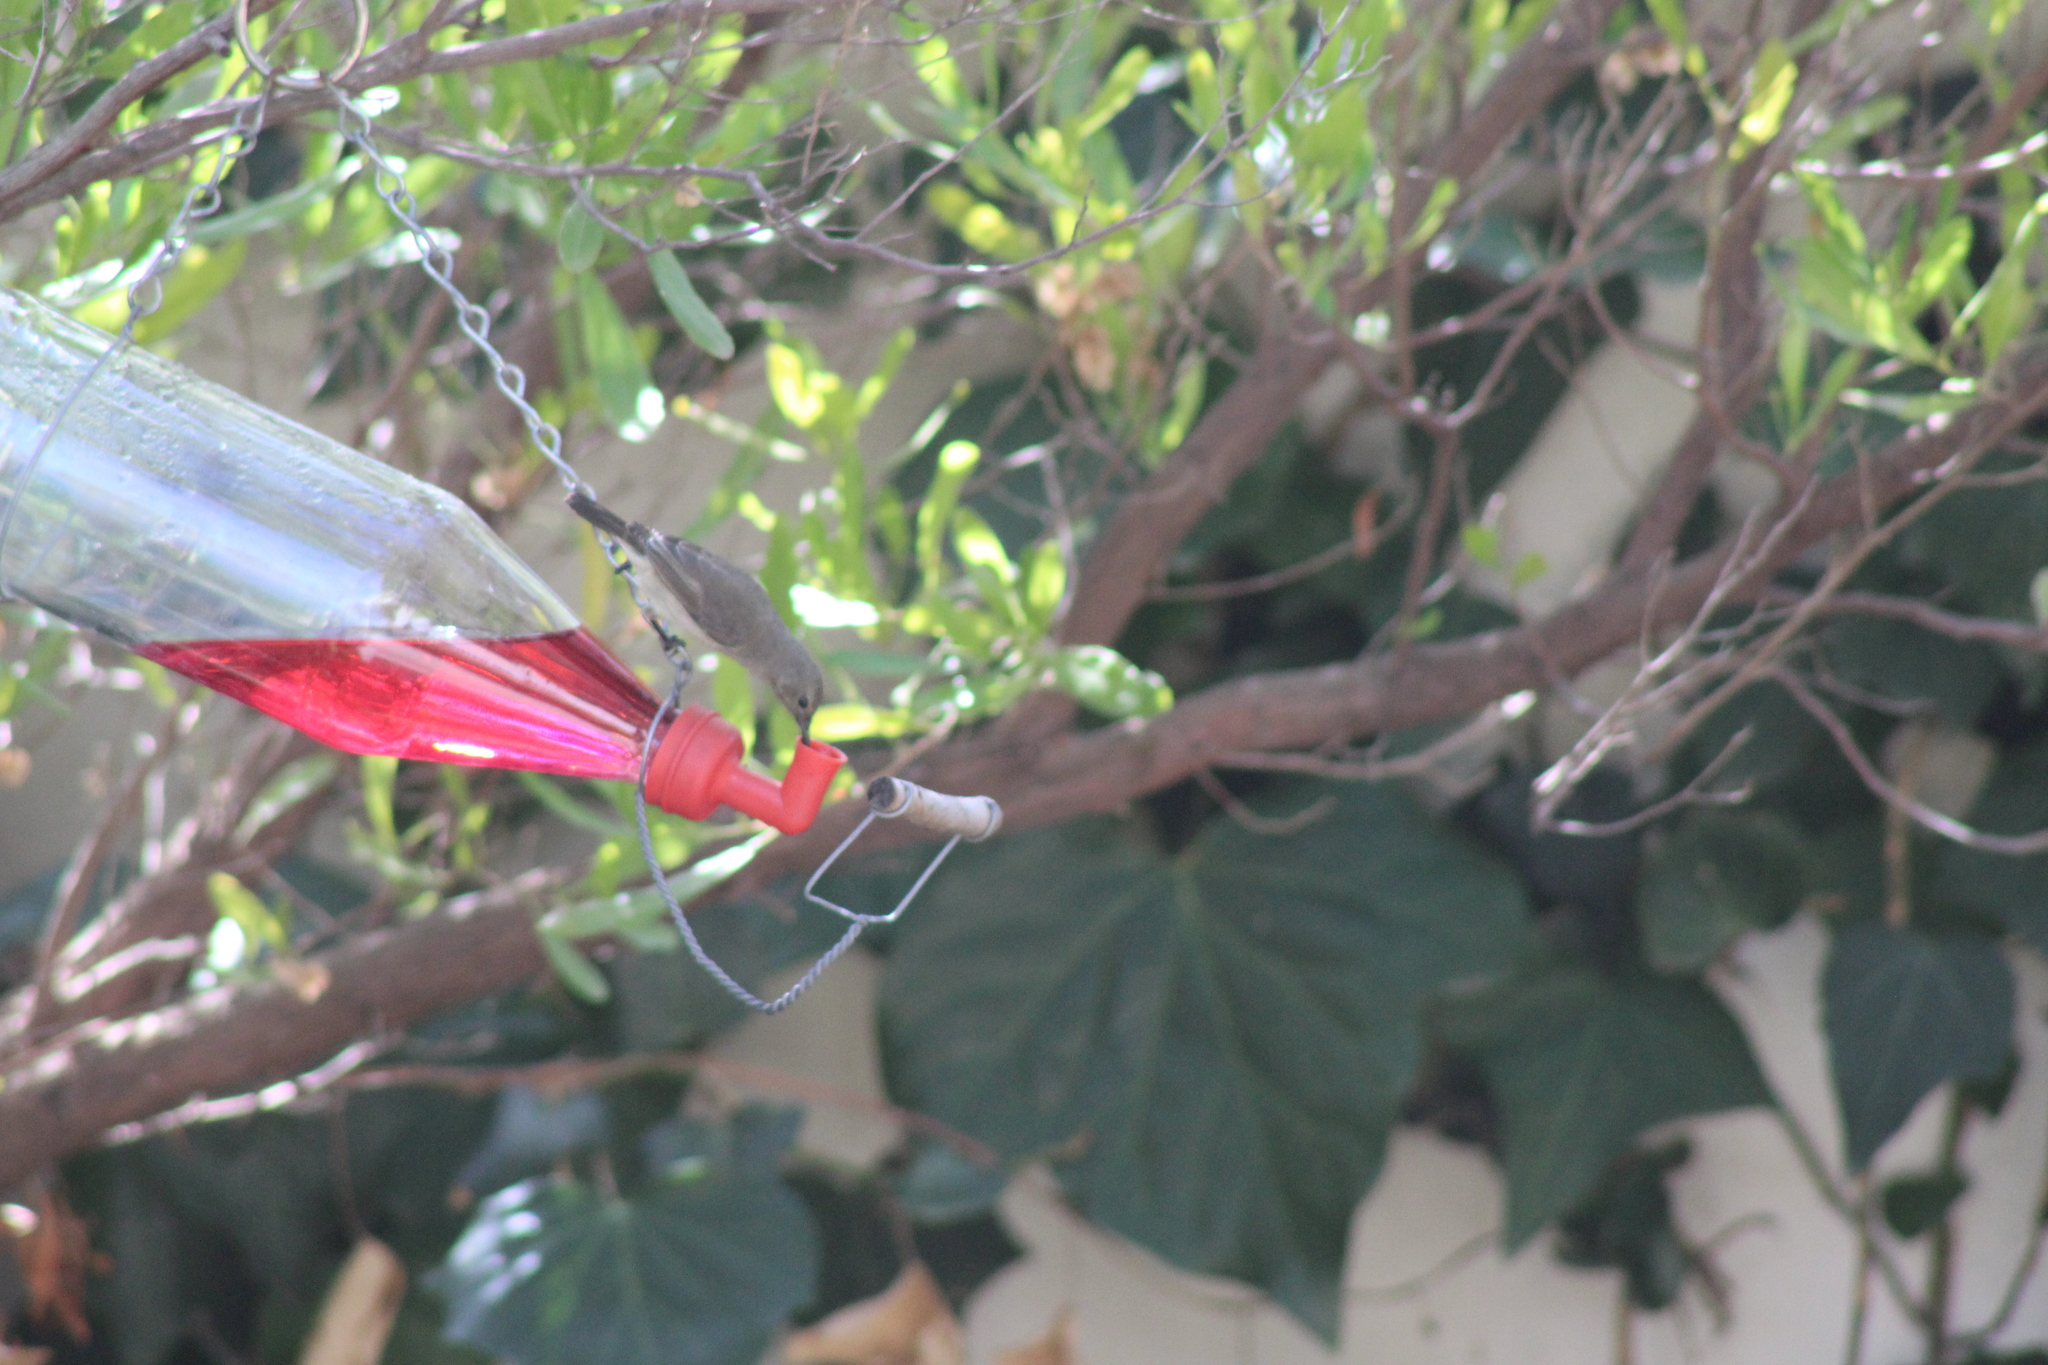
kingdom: Animalia
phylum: Chordata
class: Aves
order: Passeriformes
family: Nectariniidae
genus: Cinnyris
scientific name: Cinnyris chalybeus
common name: Southern double-collared sunbird
